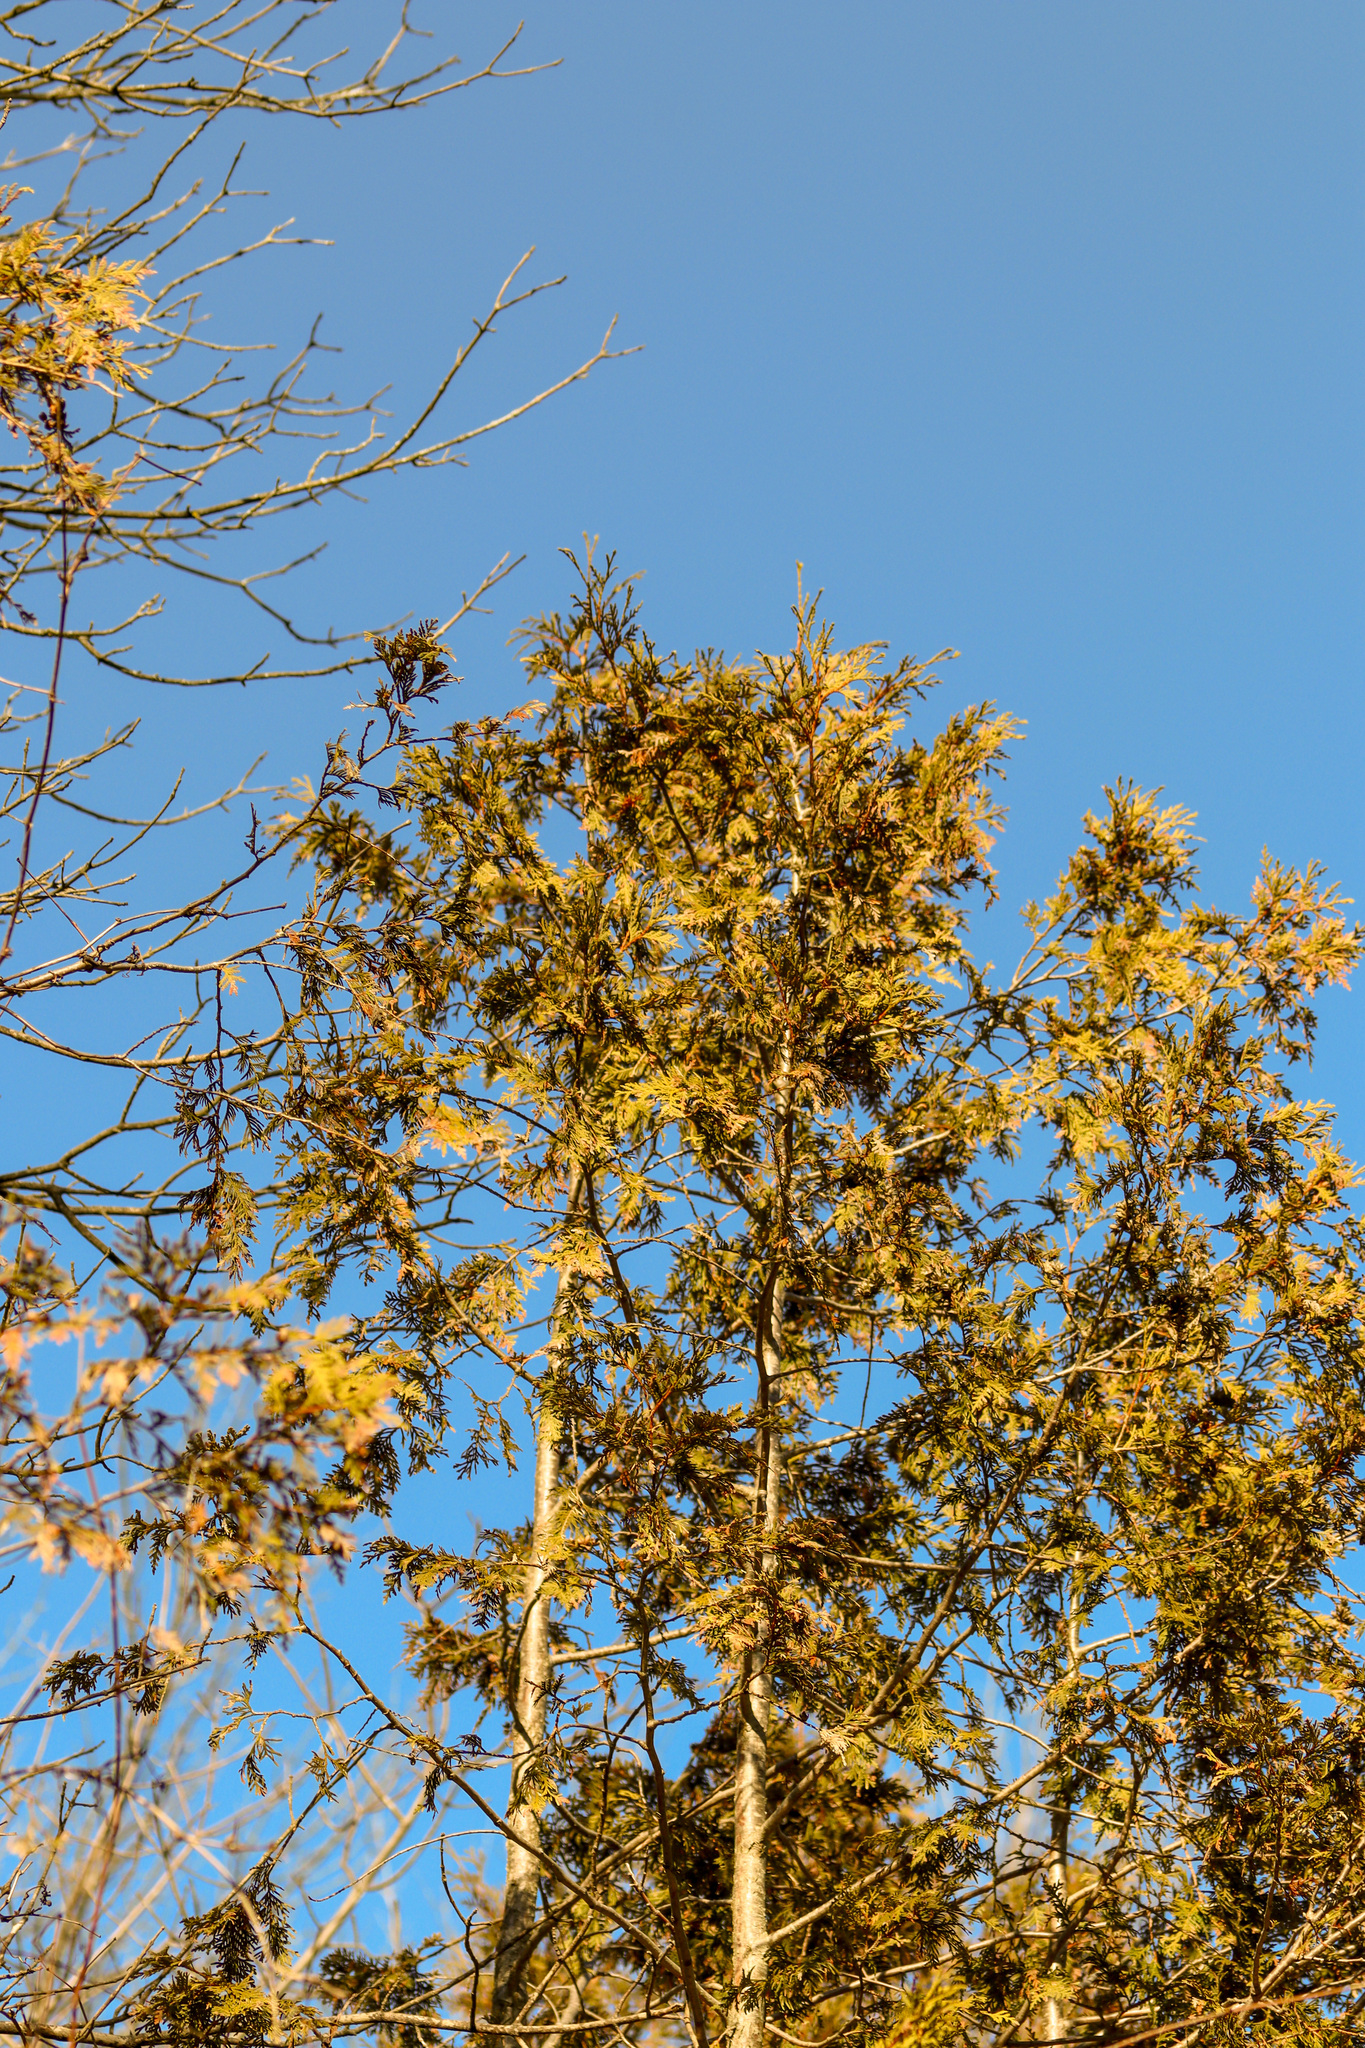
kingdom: Plantae
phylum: Tracheophyta
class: Pinopsida
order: Pinales
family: Cupressaceae
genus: Thuja
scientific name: Thuja occidentalis
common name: Northern white-cedar
